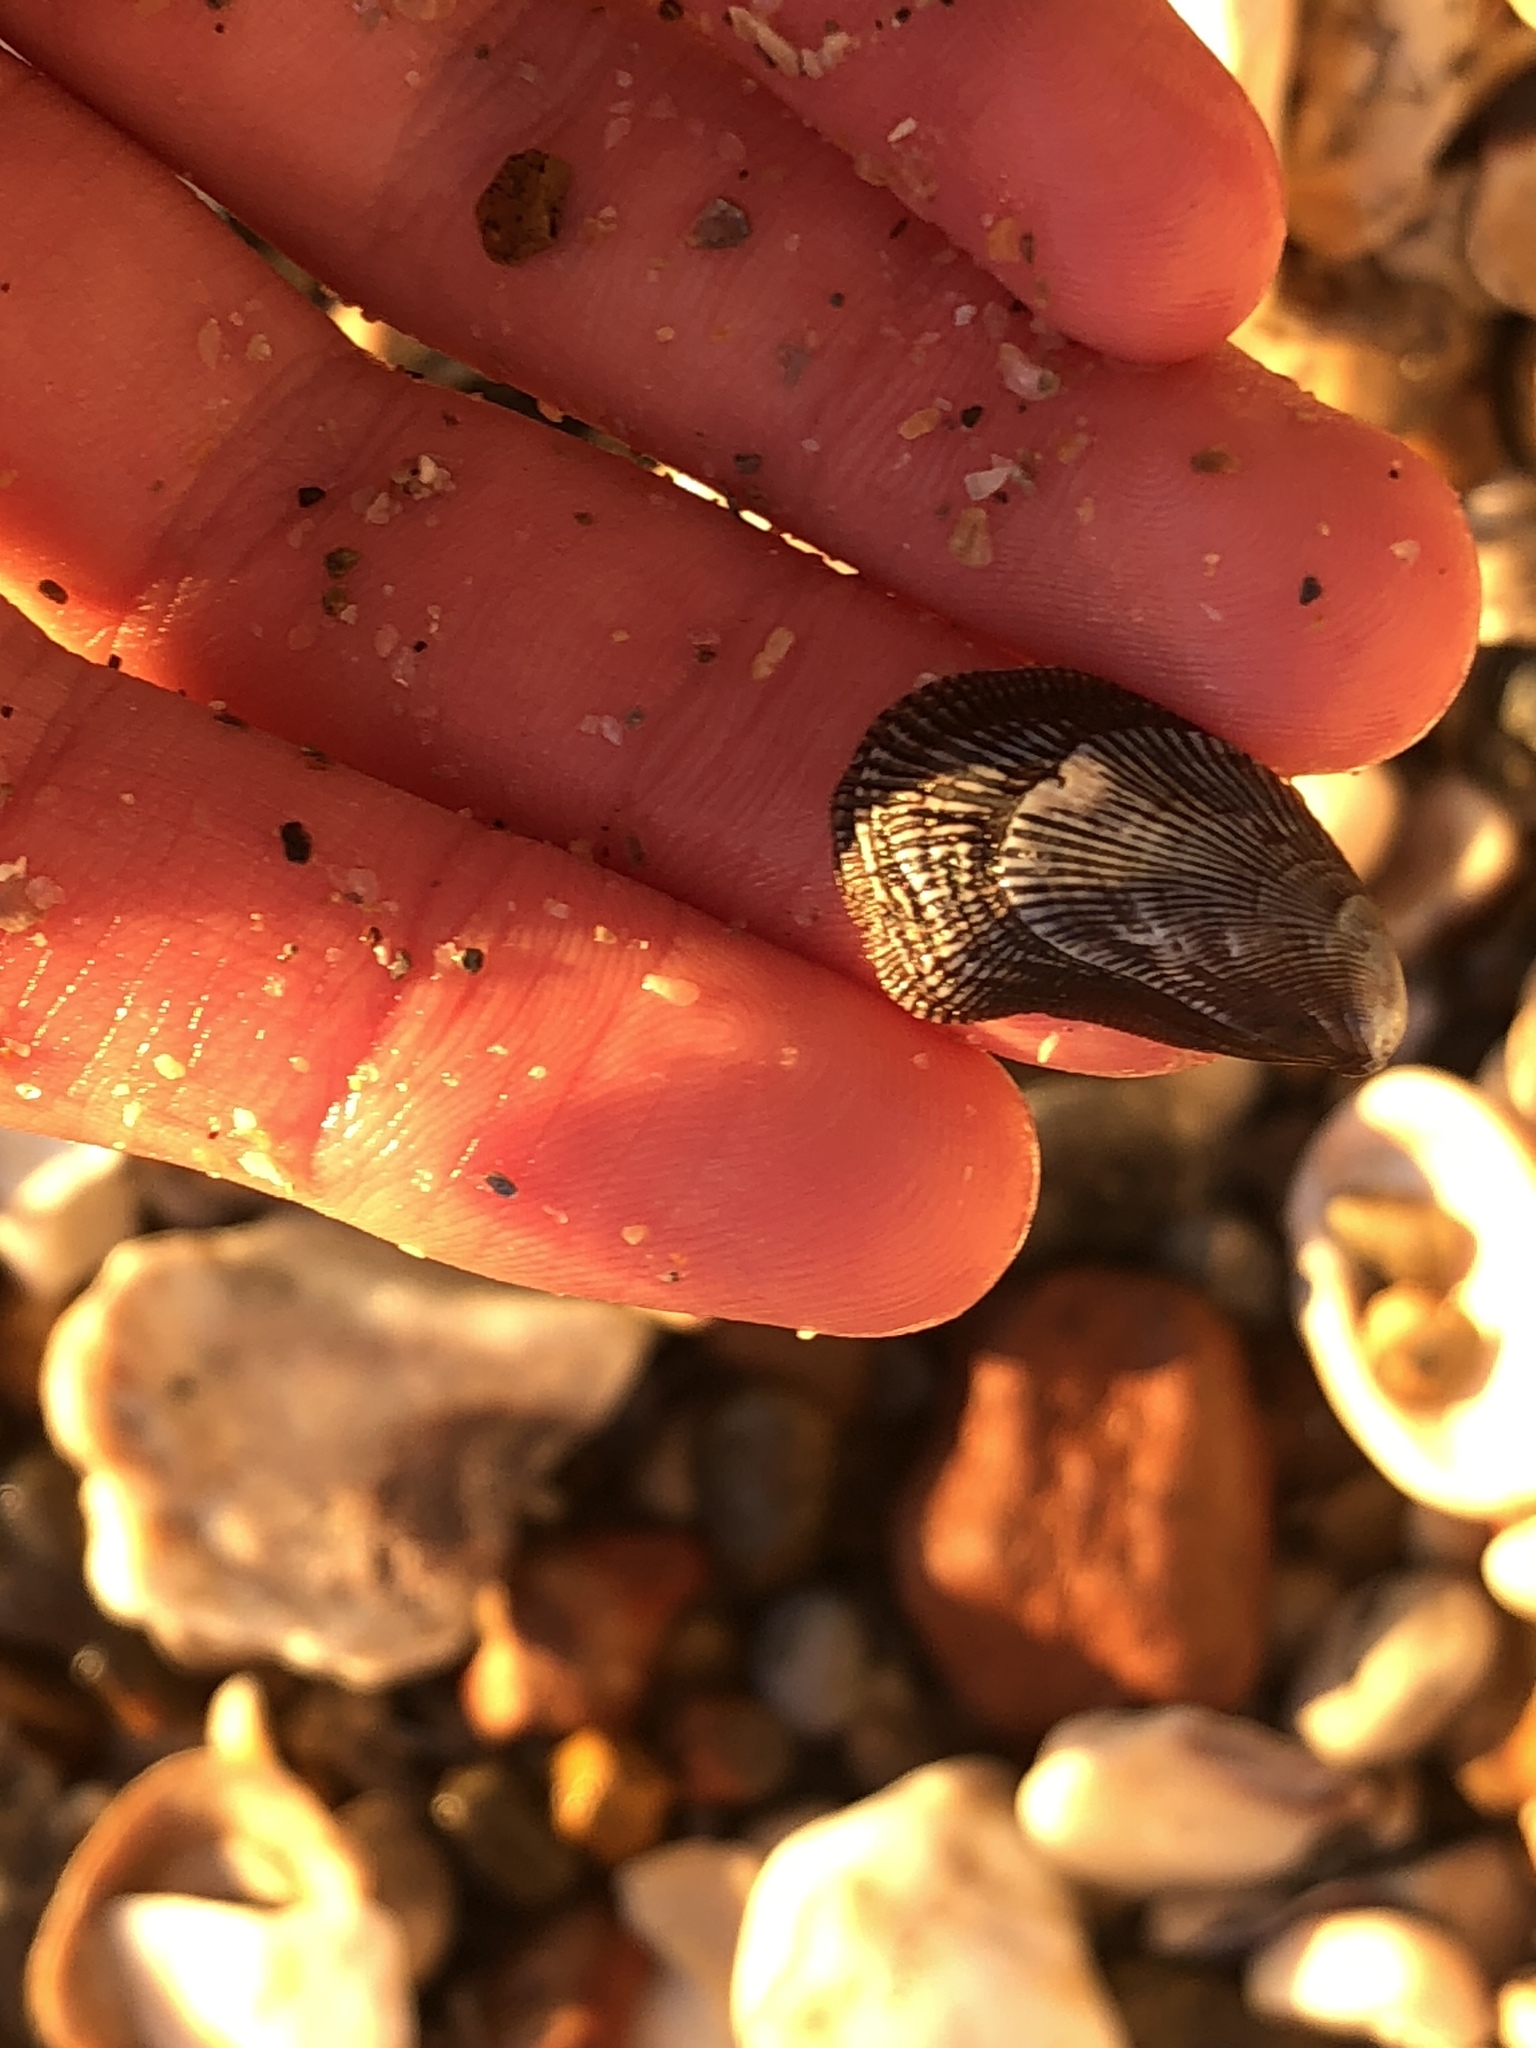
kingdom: Animalia
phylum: Mollusca
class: Bivalvia
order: Mytilida
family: Mytilidae
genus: Ischadium
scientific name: Ischadium recurvum
